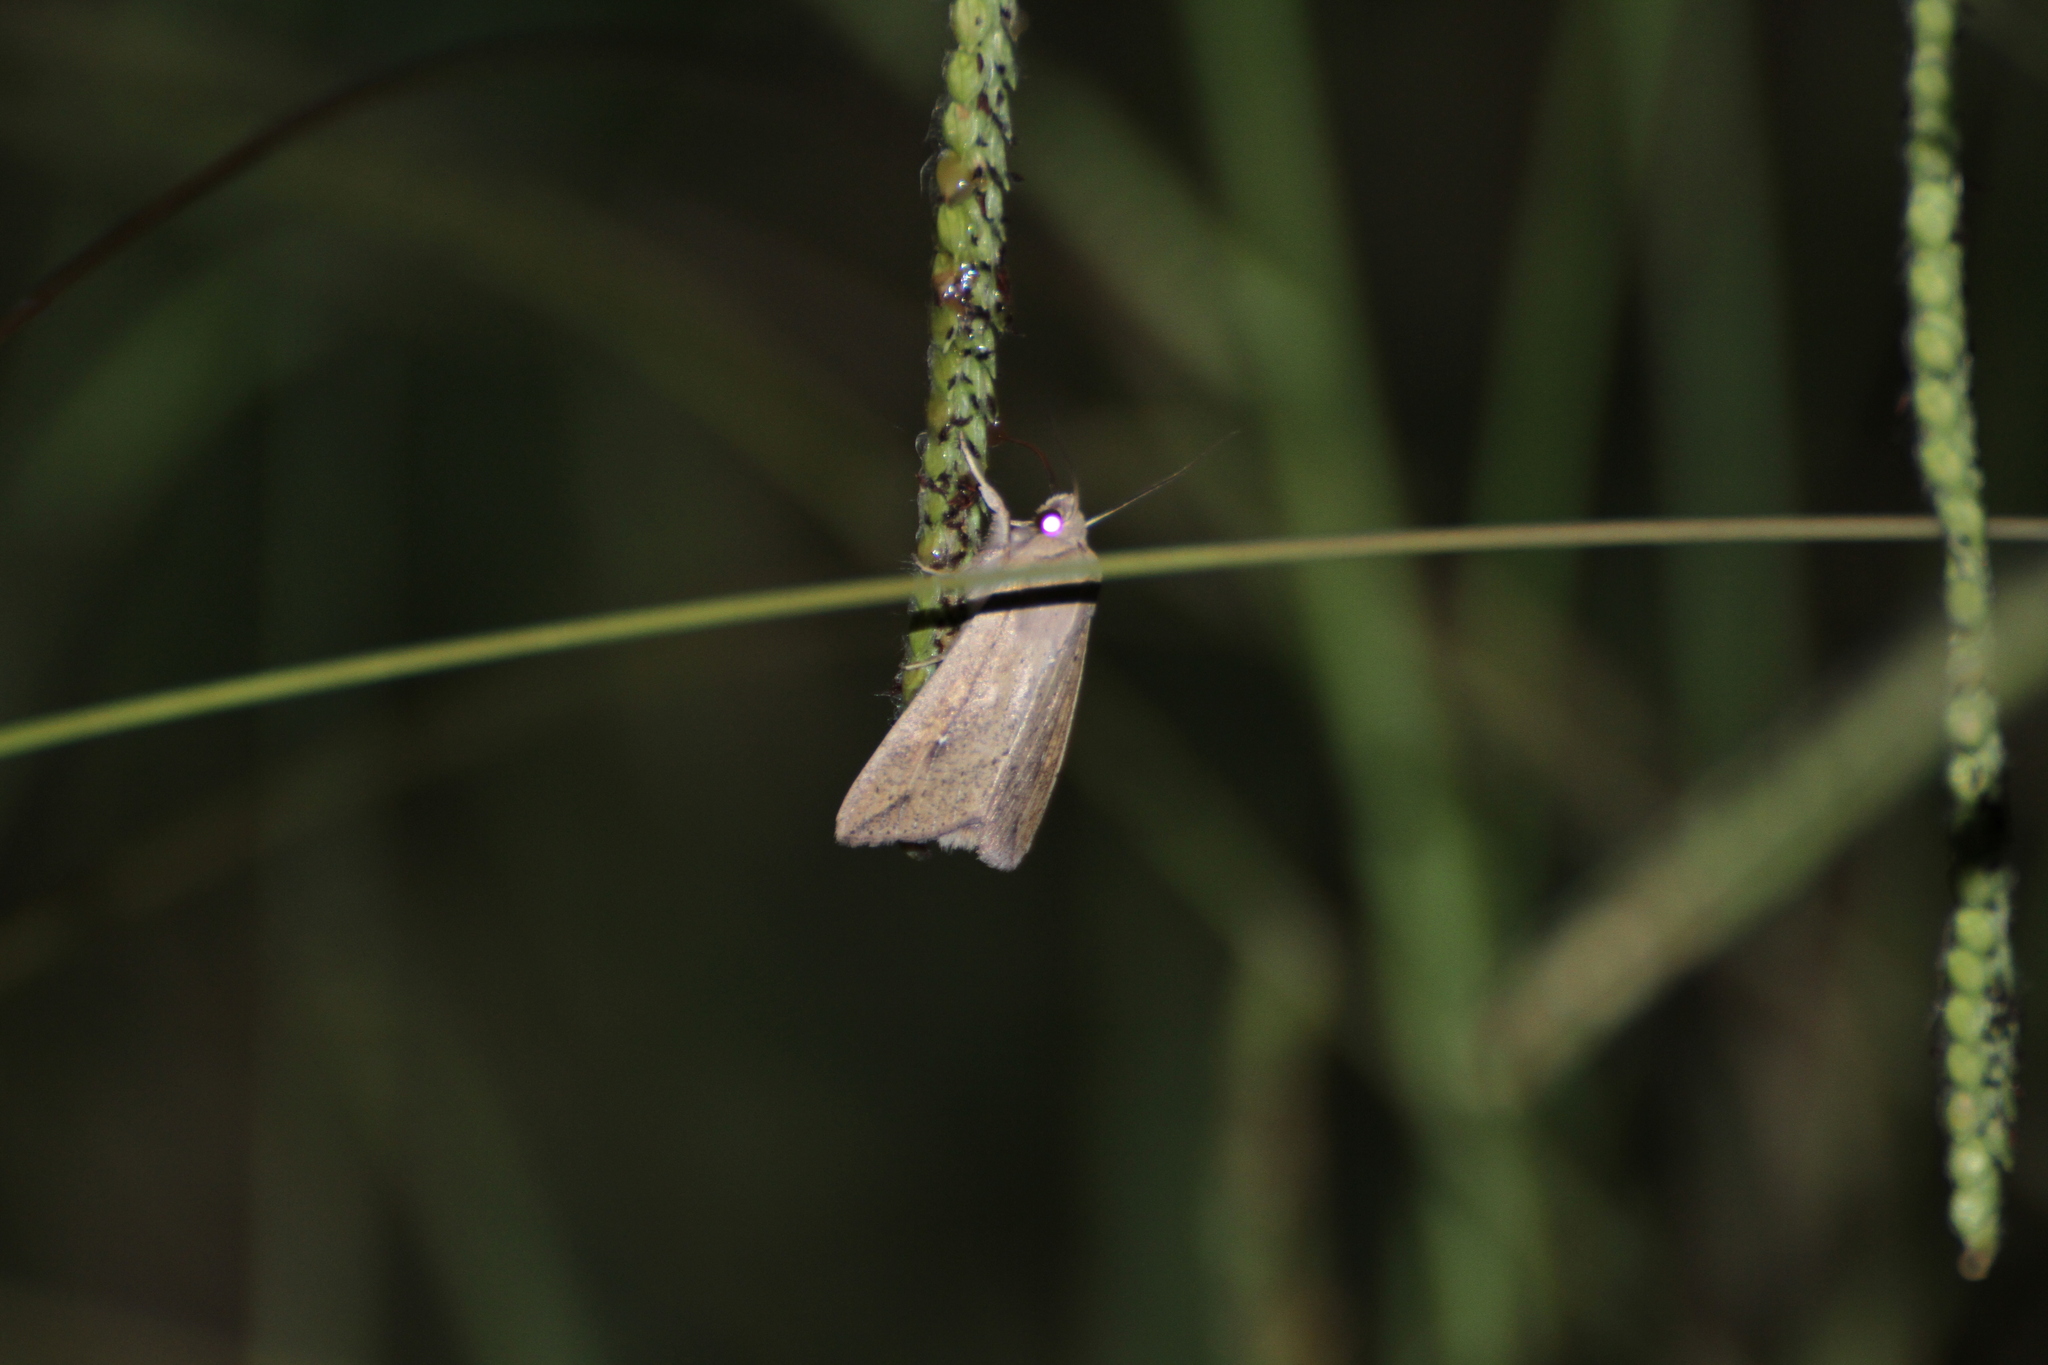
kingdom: Animalia
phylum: Arthropoda
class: Insecta
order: Lepidoptera
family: Noctuidae
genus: Mythimna
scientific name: Mythimna unipuncta
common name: White-speck
